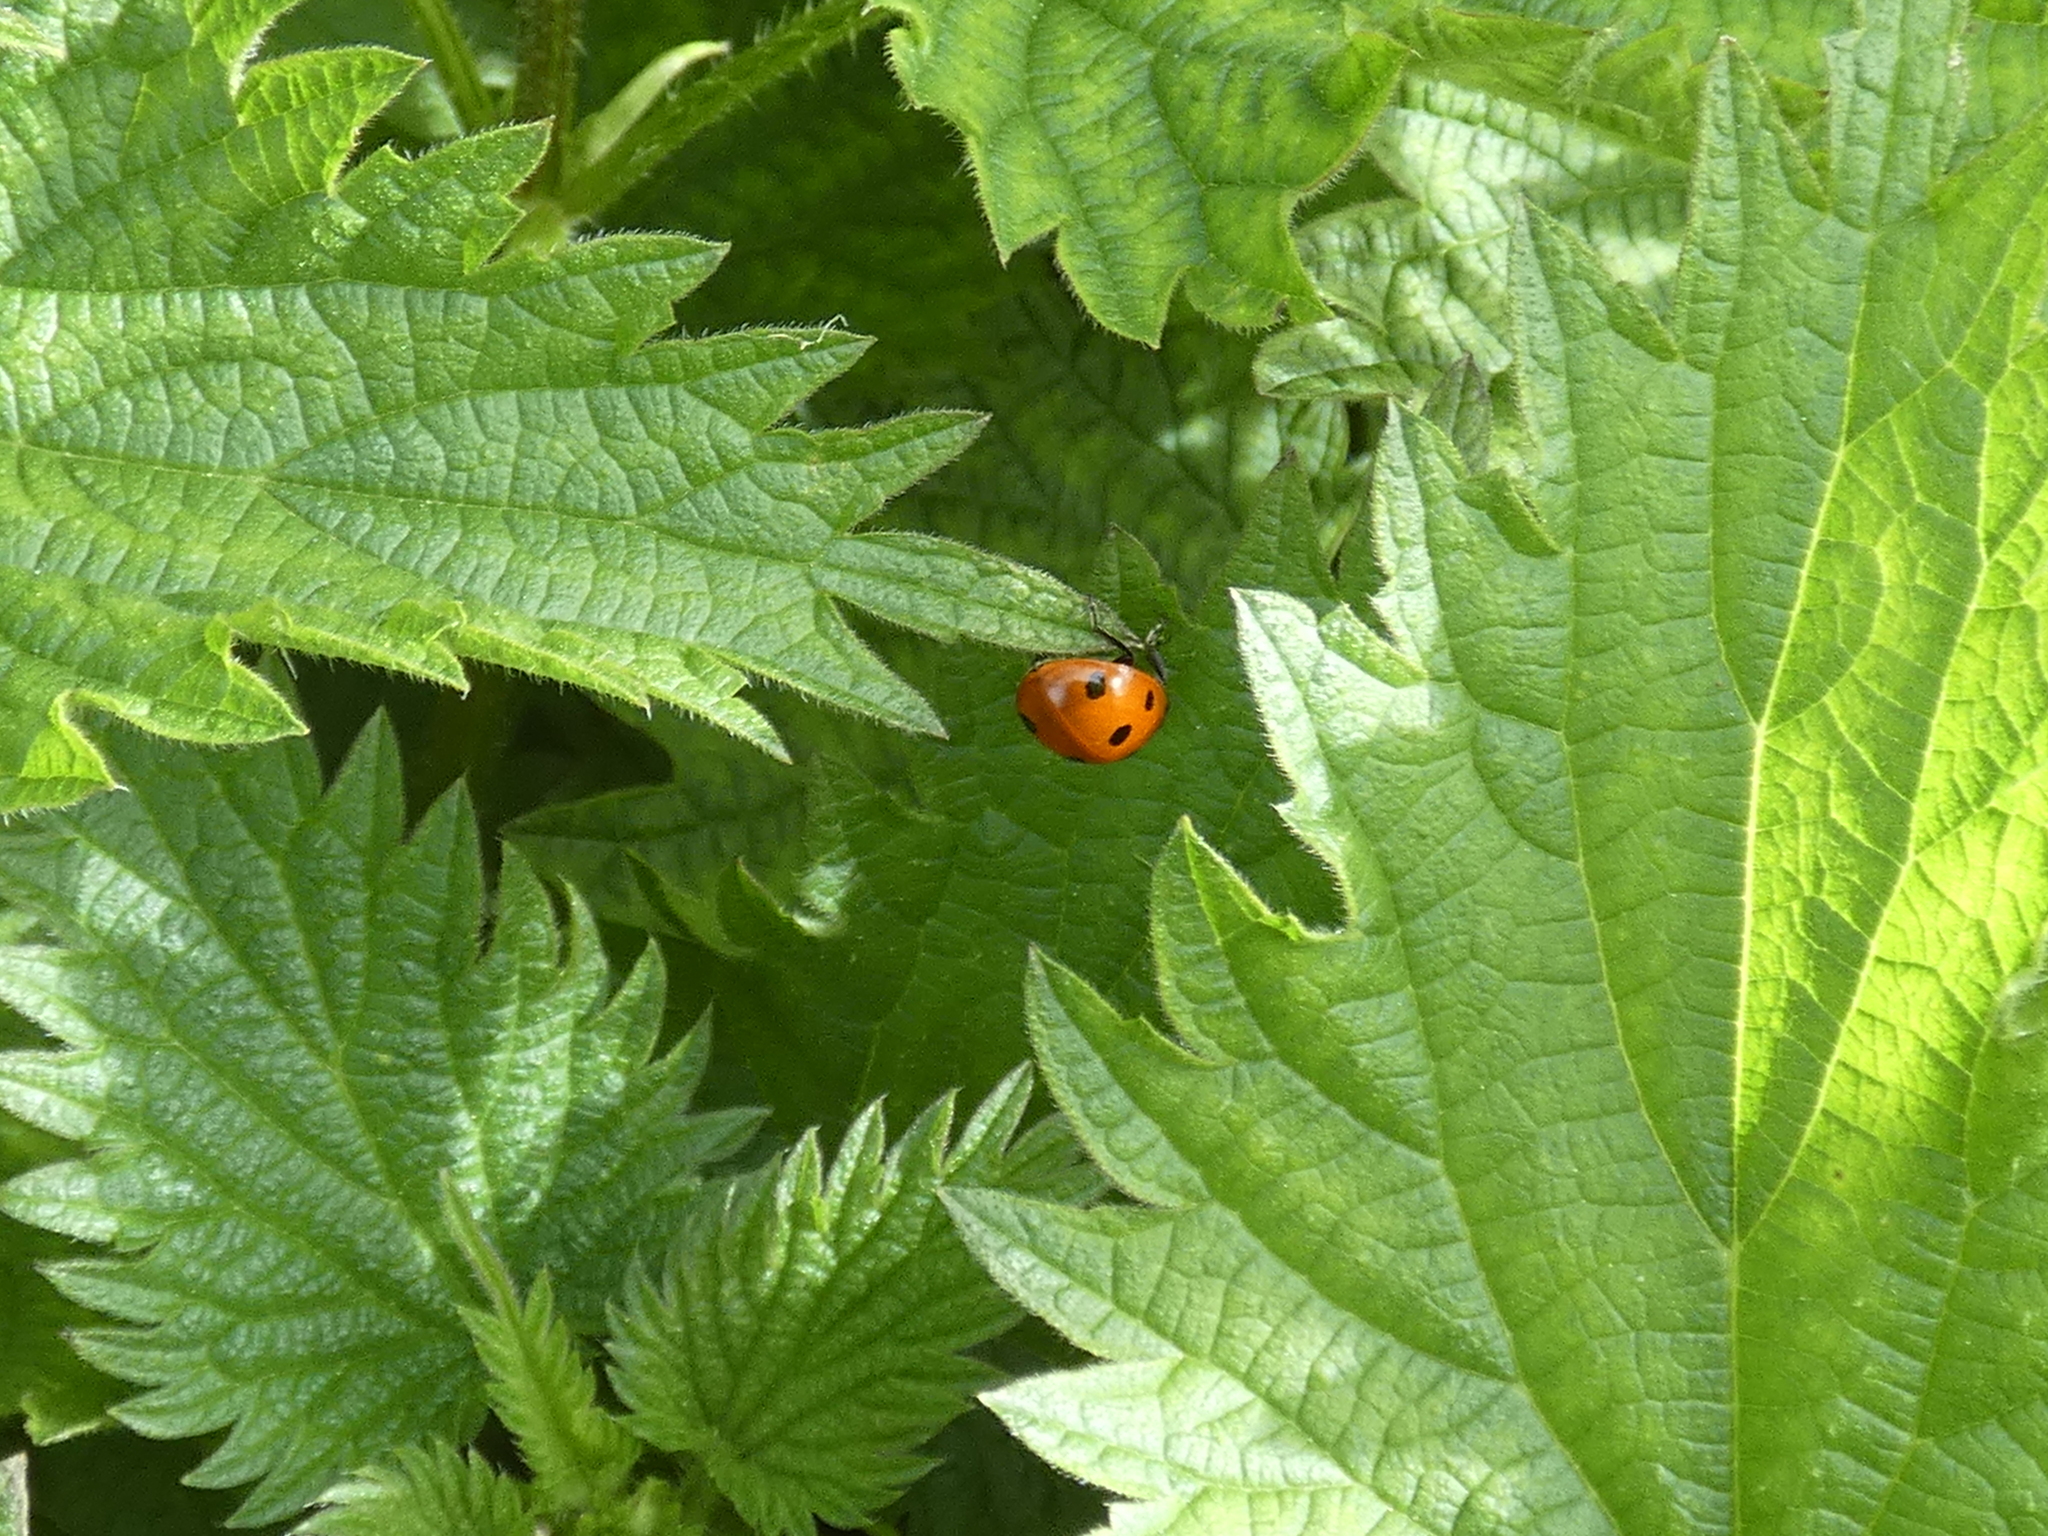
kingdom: Animalia
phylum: Arthropoda
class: Insecta
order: Coleoptera
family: Coccinellidae
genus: Coccinella
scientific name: Coccinella septempunctata
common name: Sevenspotted lady beetle
